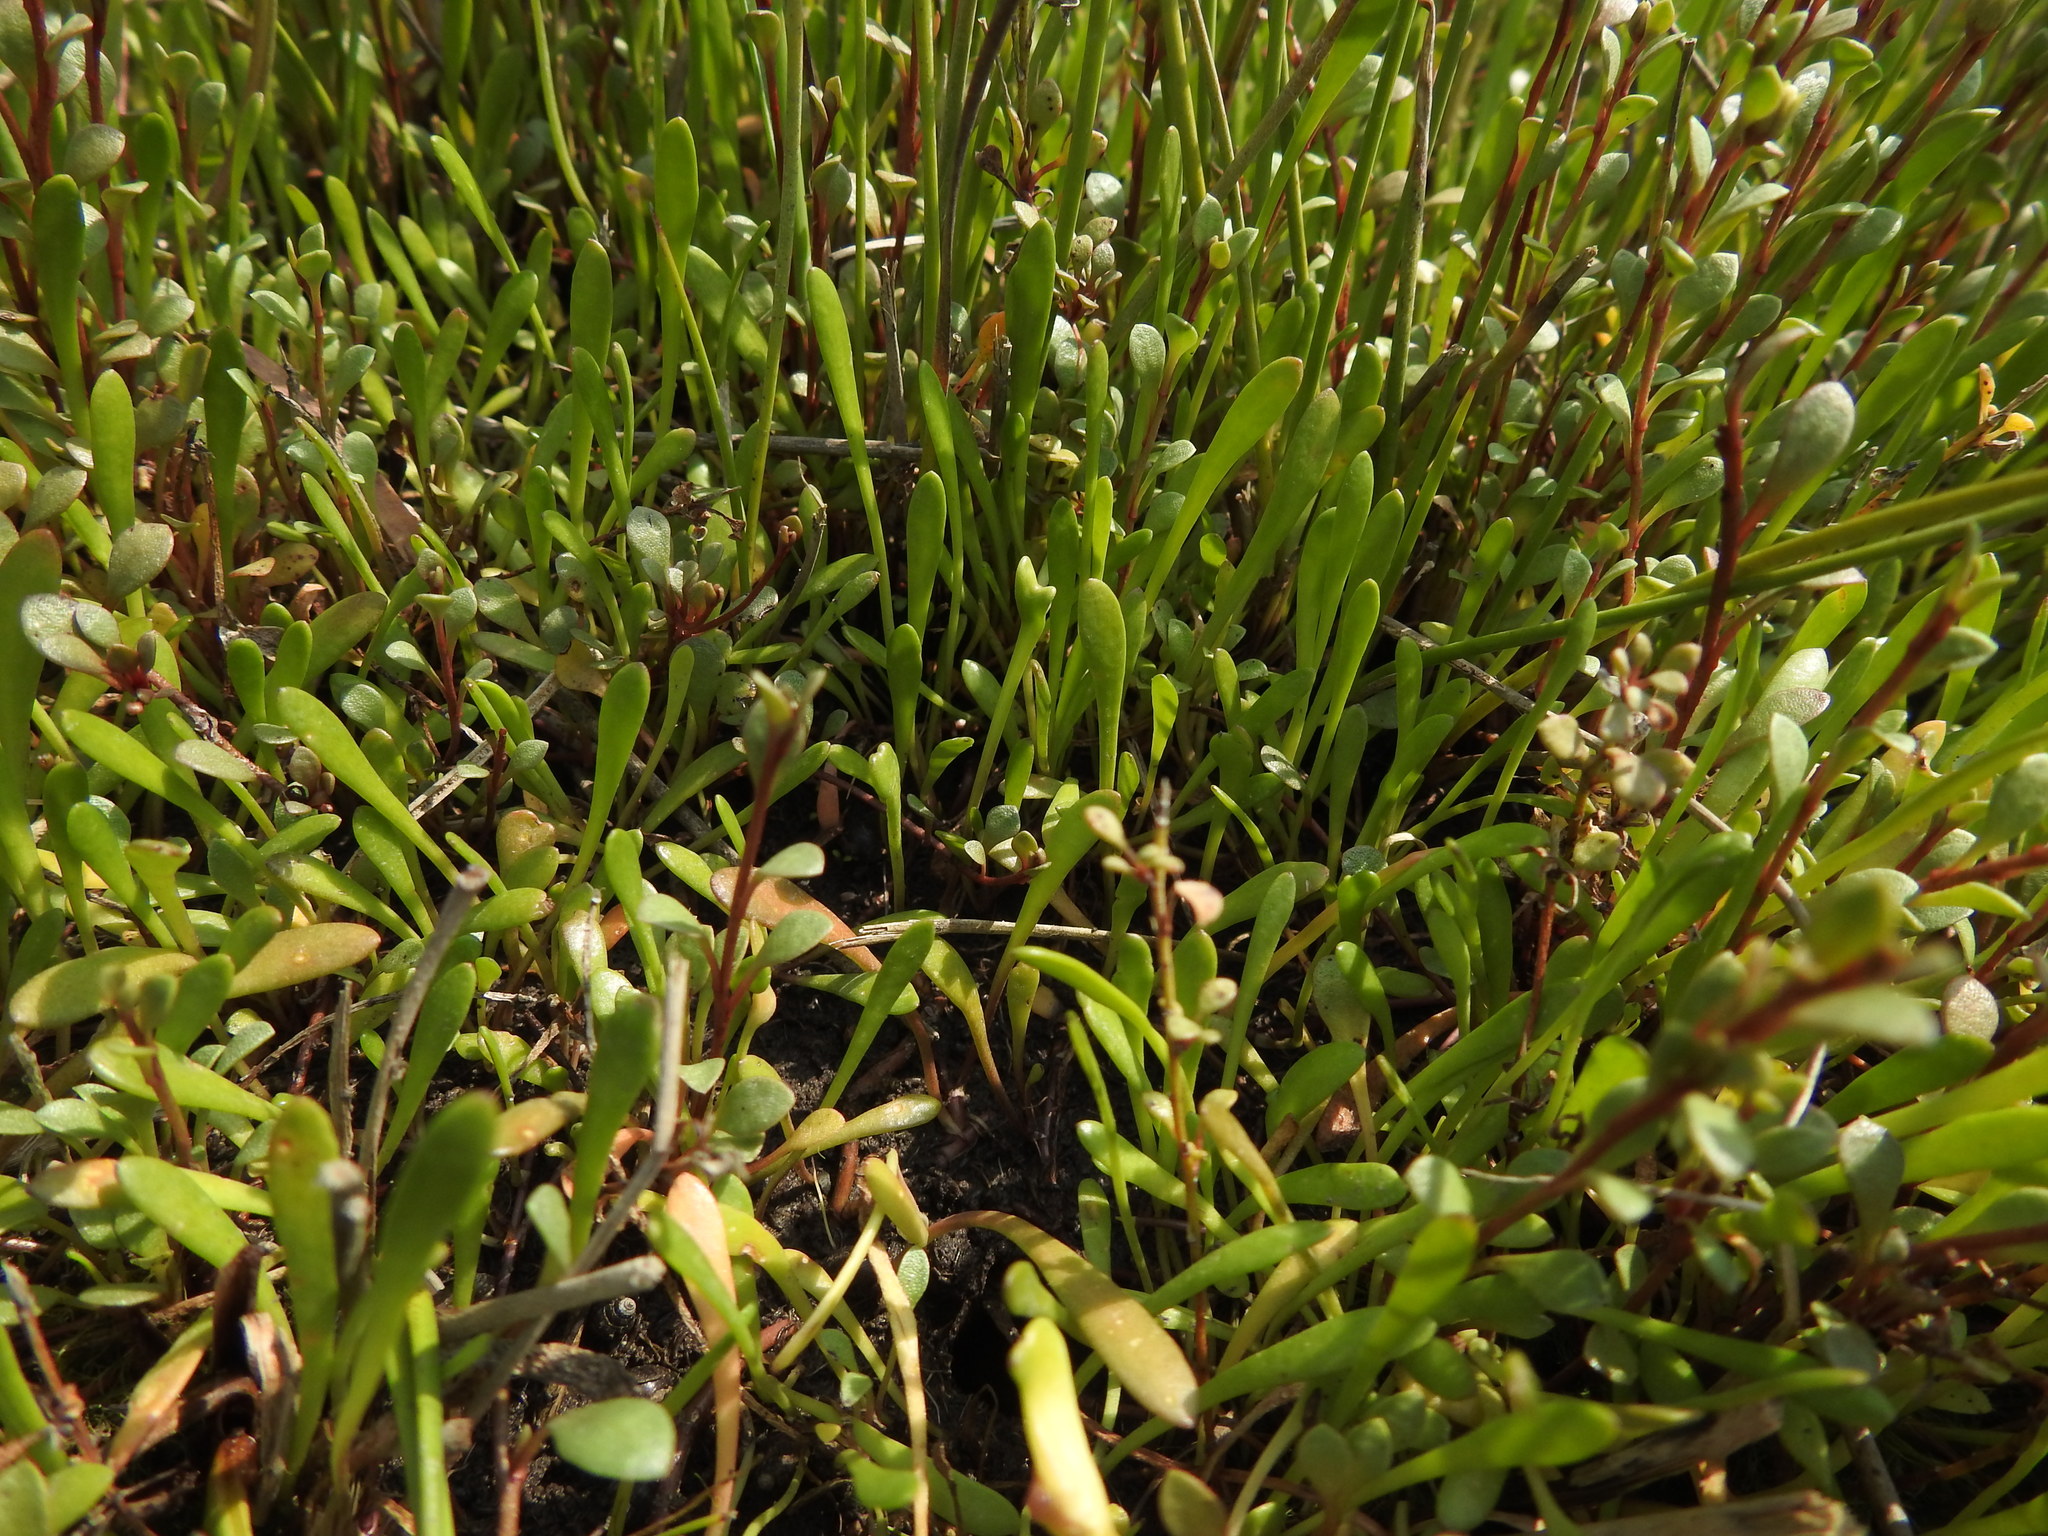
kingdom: Plantae
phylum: Tracheophyta
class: Magnoliopsida
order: Asterales
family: Goodeniaceae
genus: Goodenia
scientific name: Goodenia radicans
